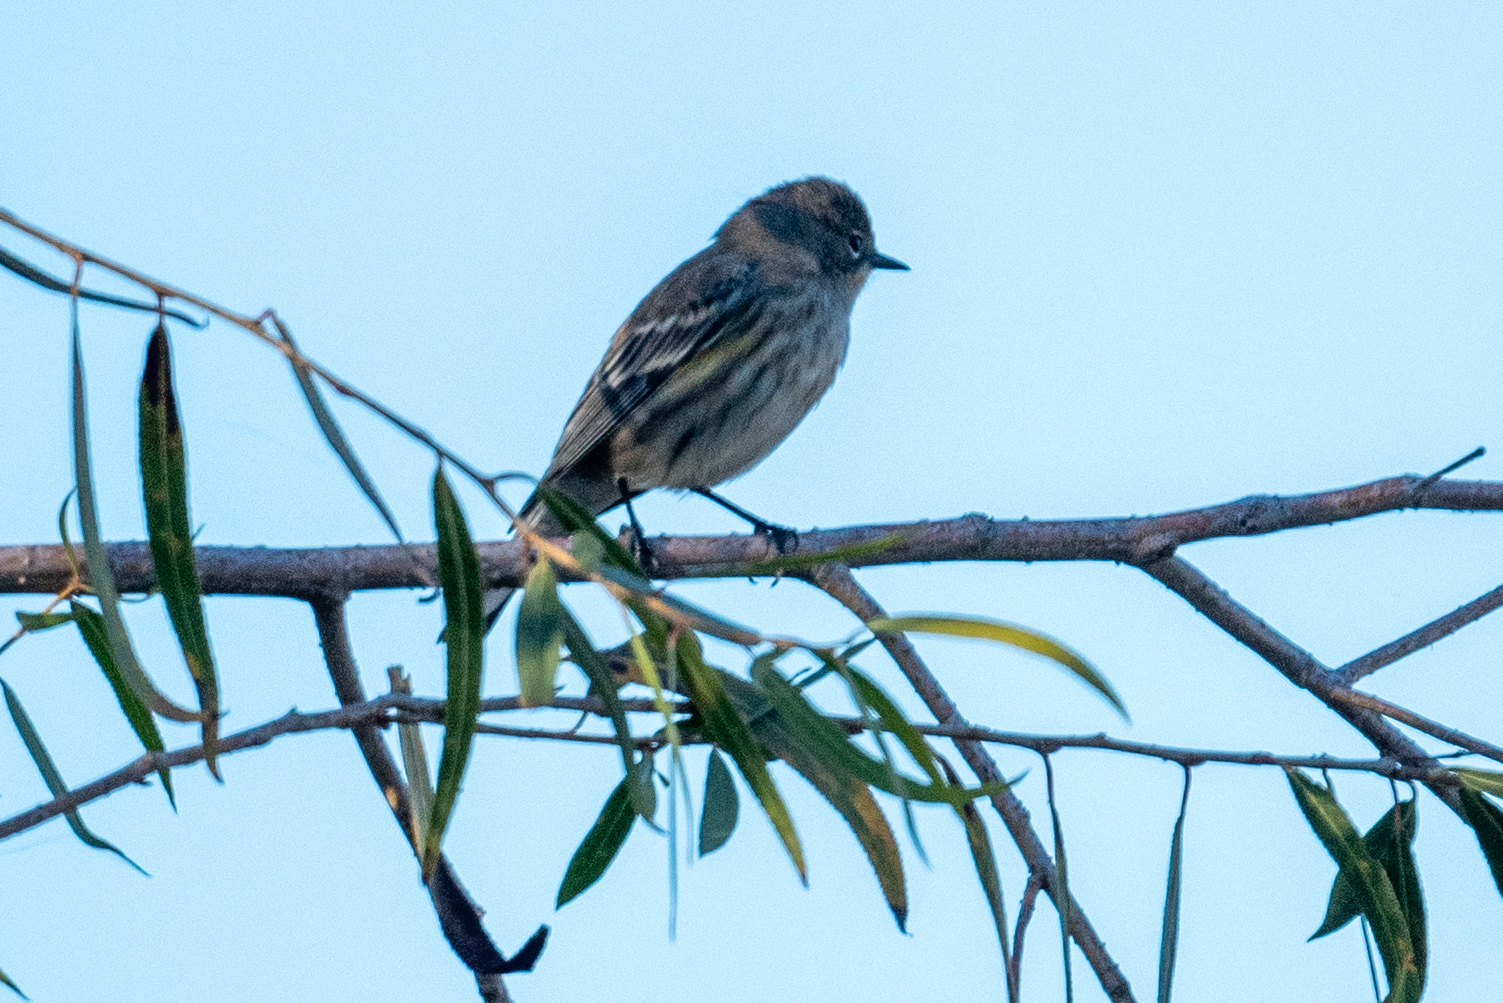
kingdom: Animalia
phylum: Chordata
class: Aves
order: Passeriformes
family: Parulidae
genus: Setophaga
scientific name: Setophaga coronata
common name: Myrtle warbler
